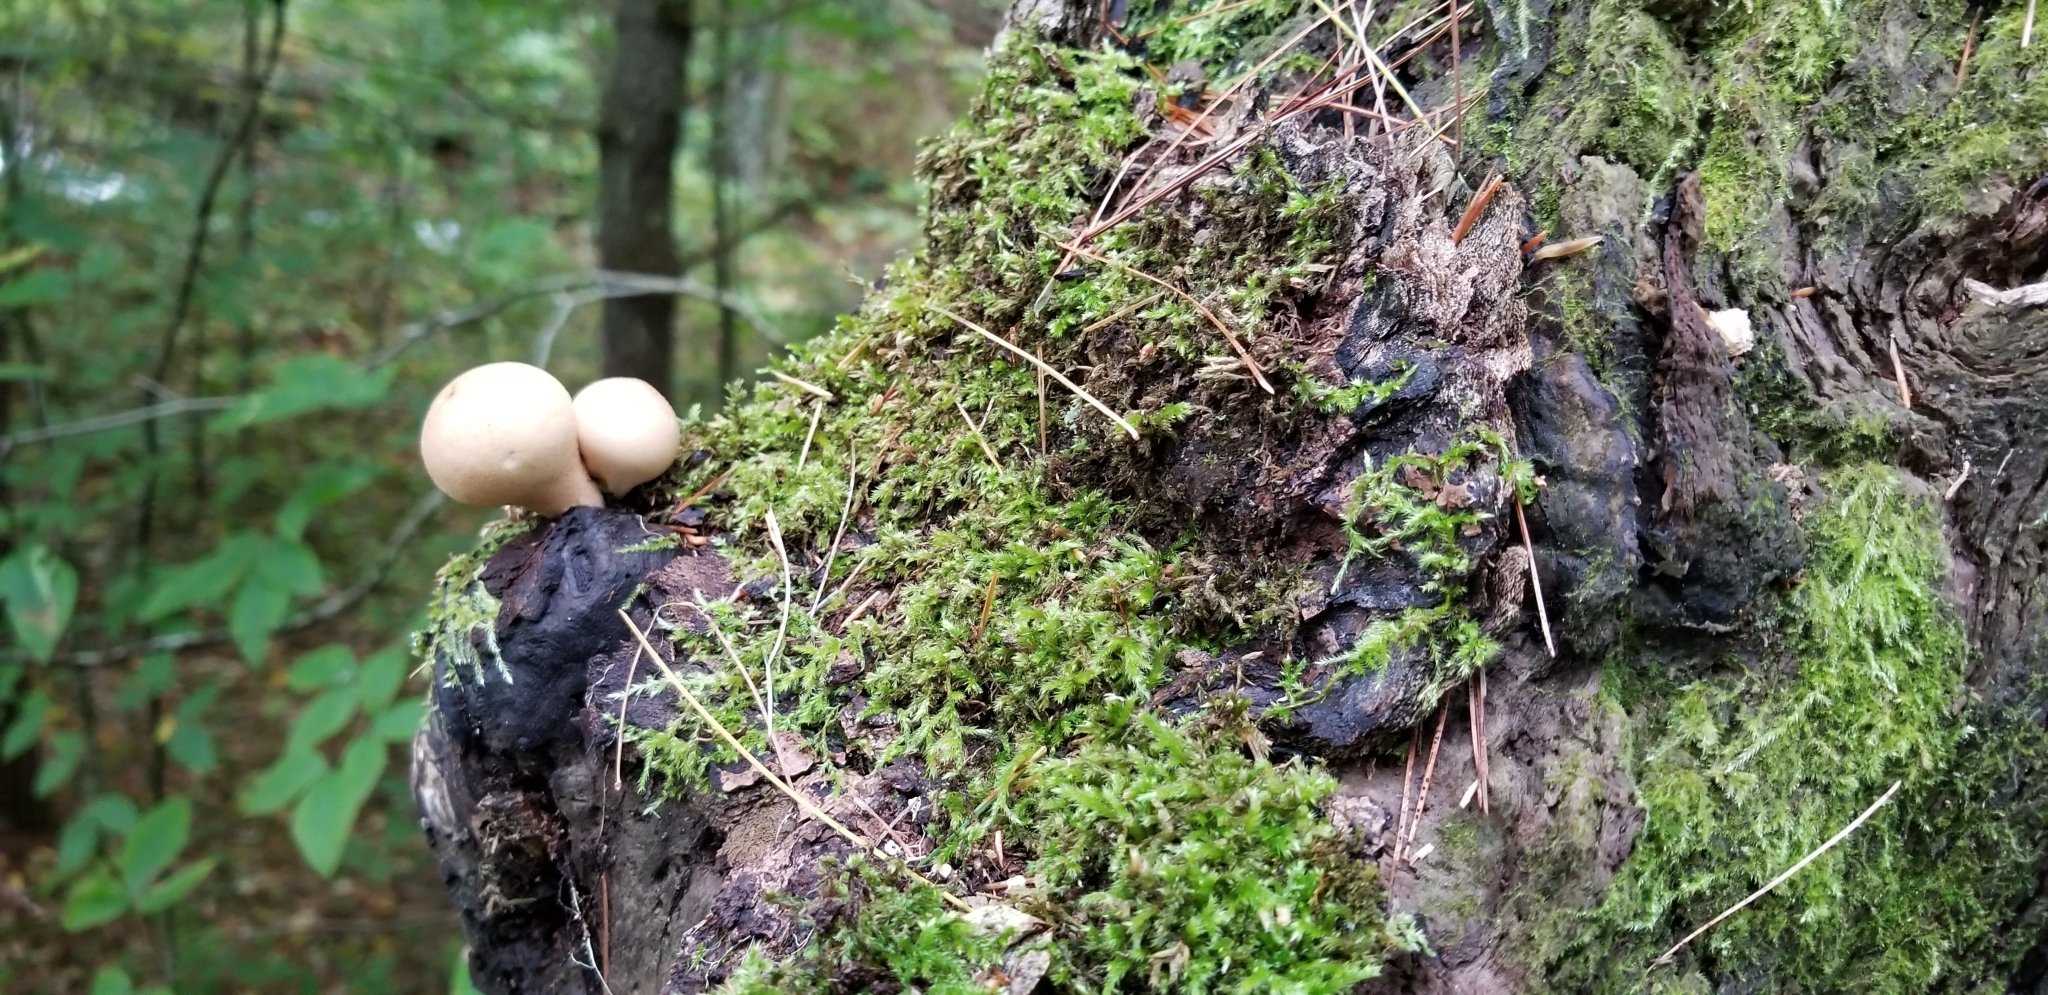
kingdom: Fungi
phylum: Basidiomycota
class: Agaricomycetes
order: Agaricales
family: Lycoperdaceae
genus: Apioperdon
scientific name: Apioperdon pyriforme
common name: Pear-shaped puffball
